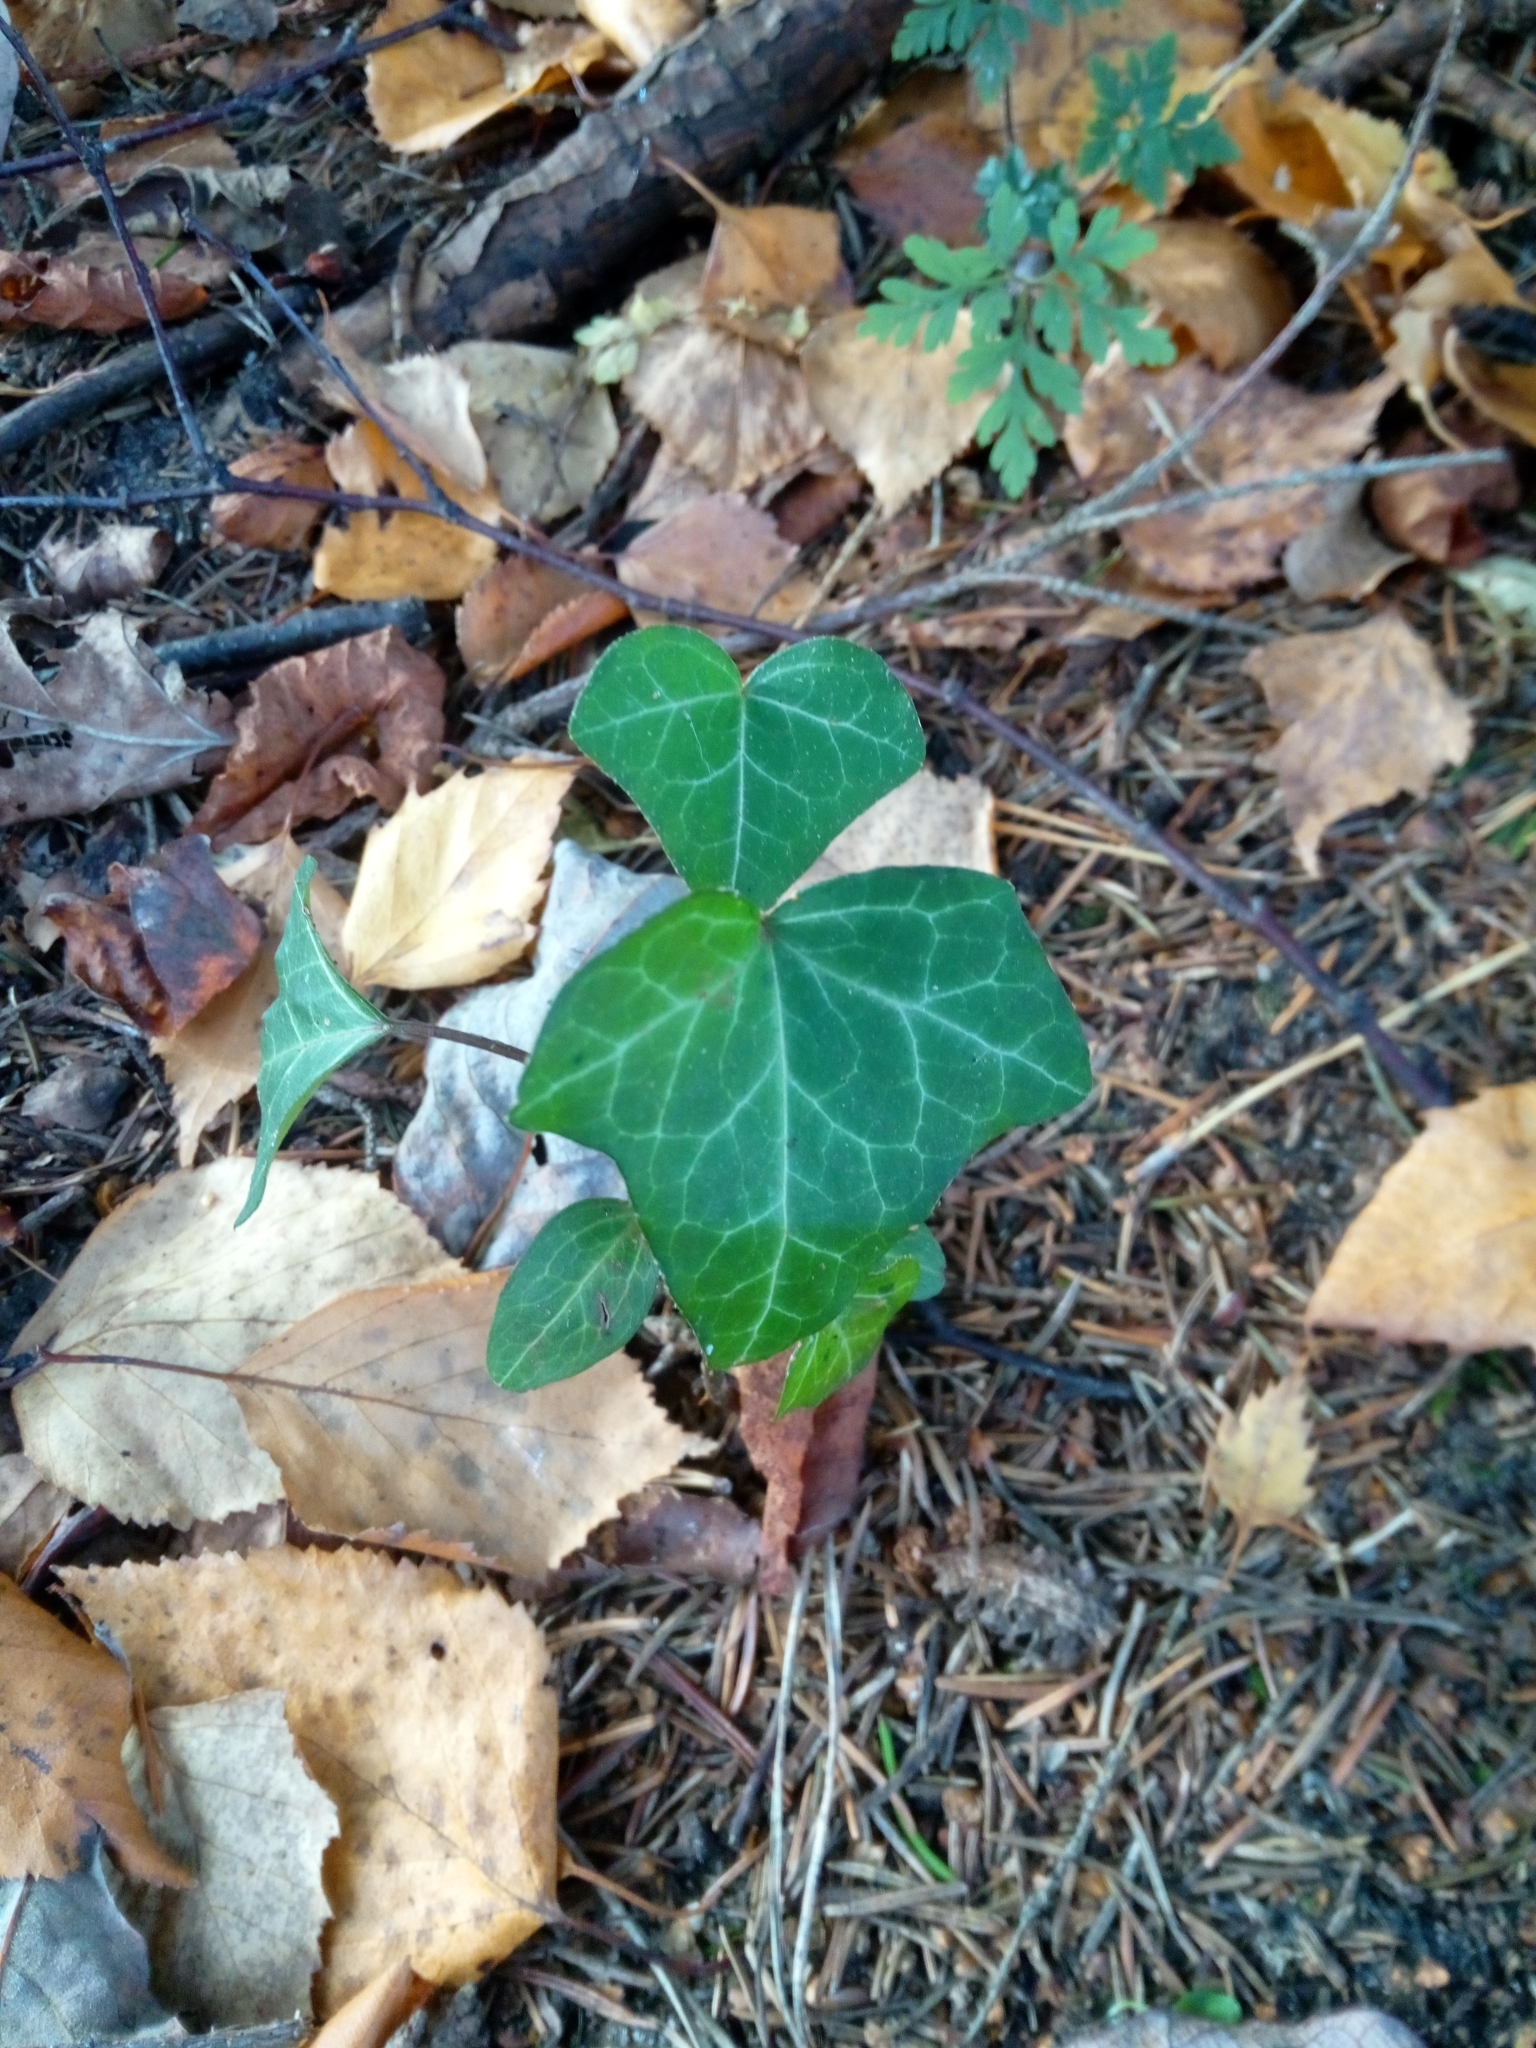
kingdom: Plantae
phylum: Tracheophyta
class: Magnoliopsida
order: Apiales
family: Araliaceae
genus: Hedera
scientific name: Hedera helix
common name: Ivy
